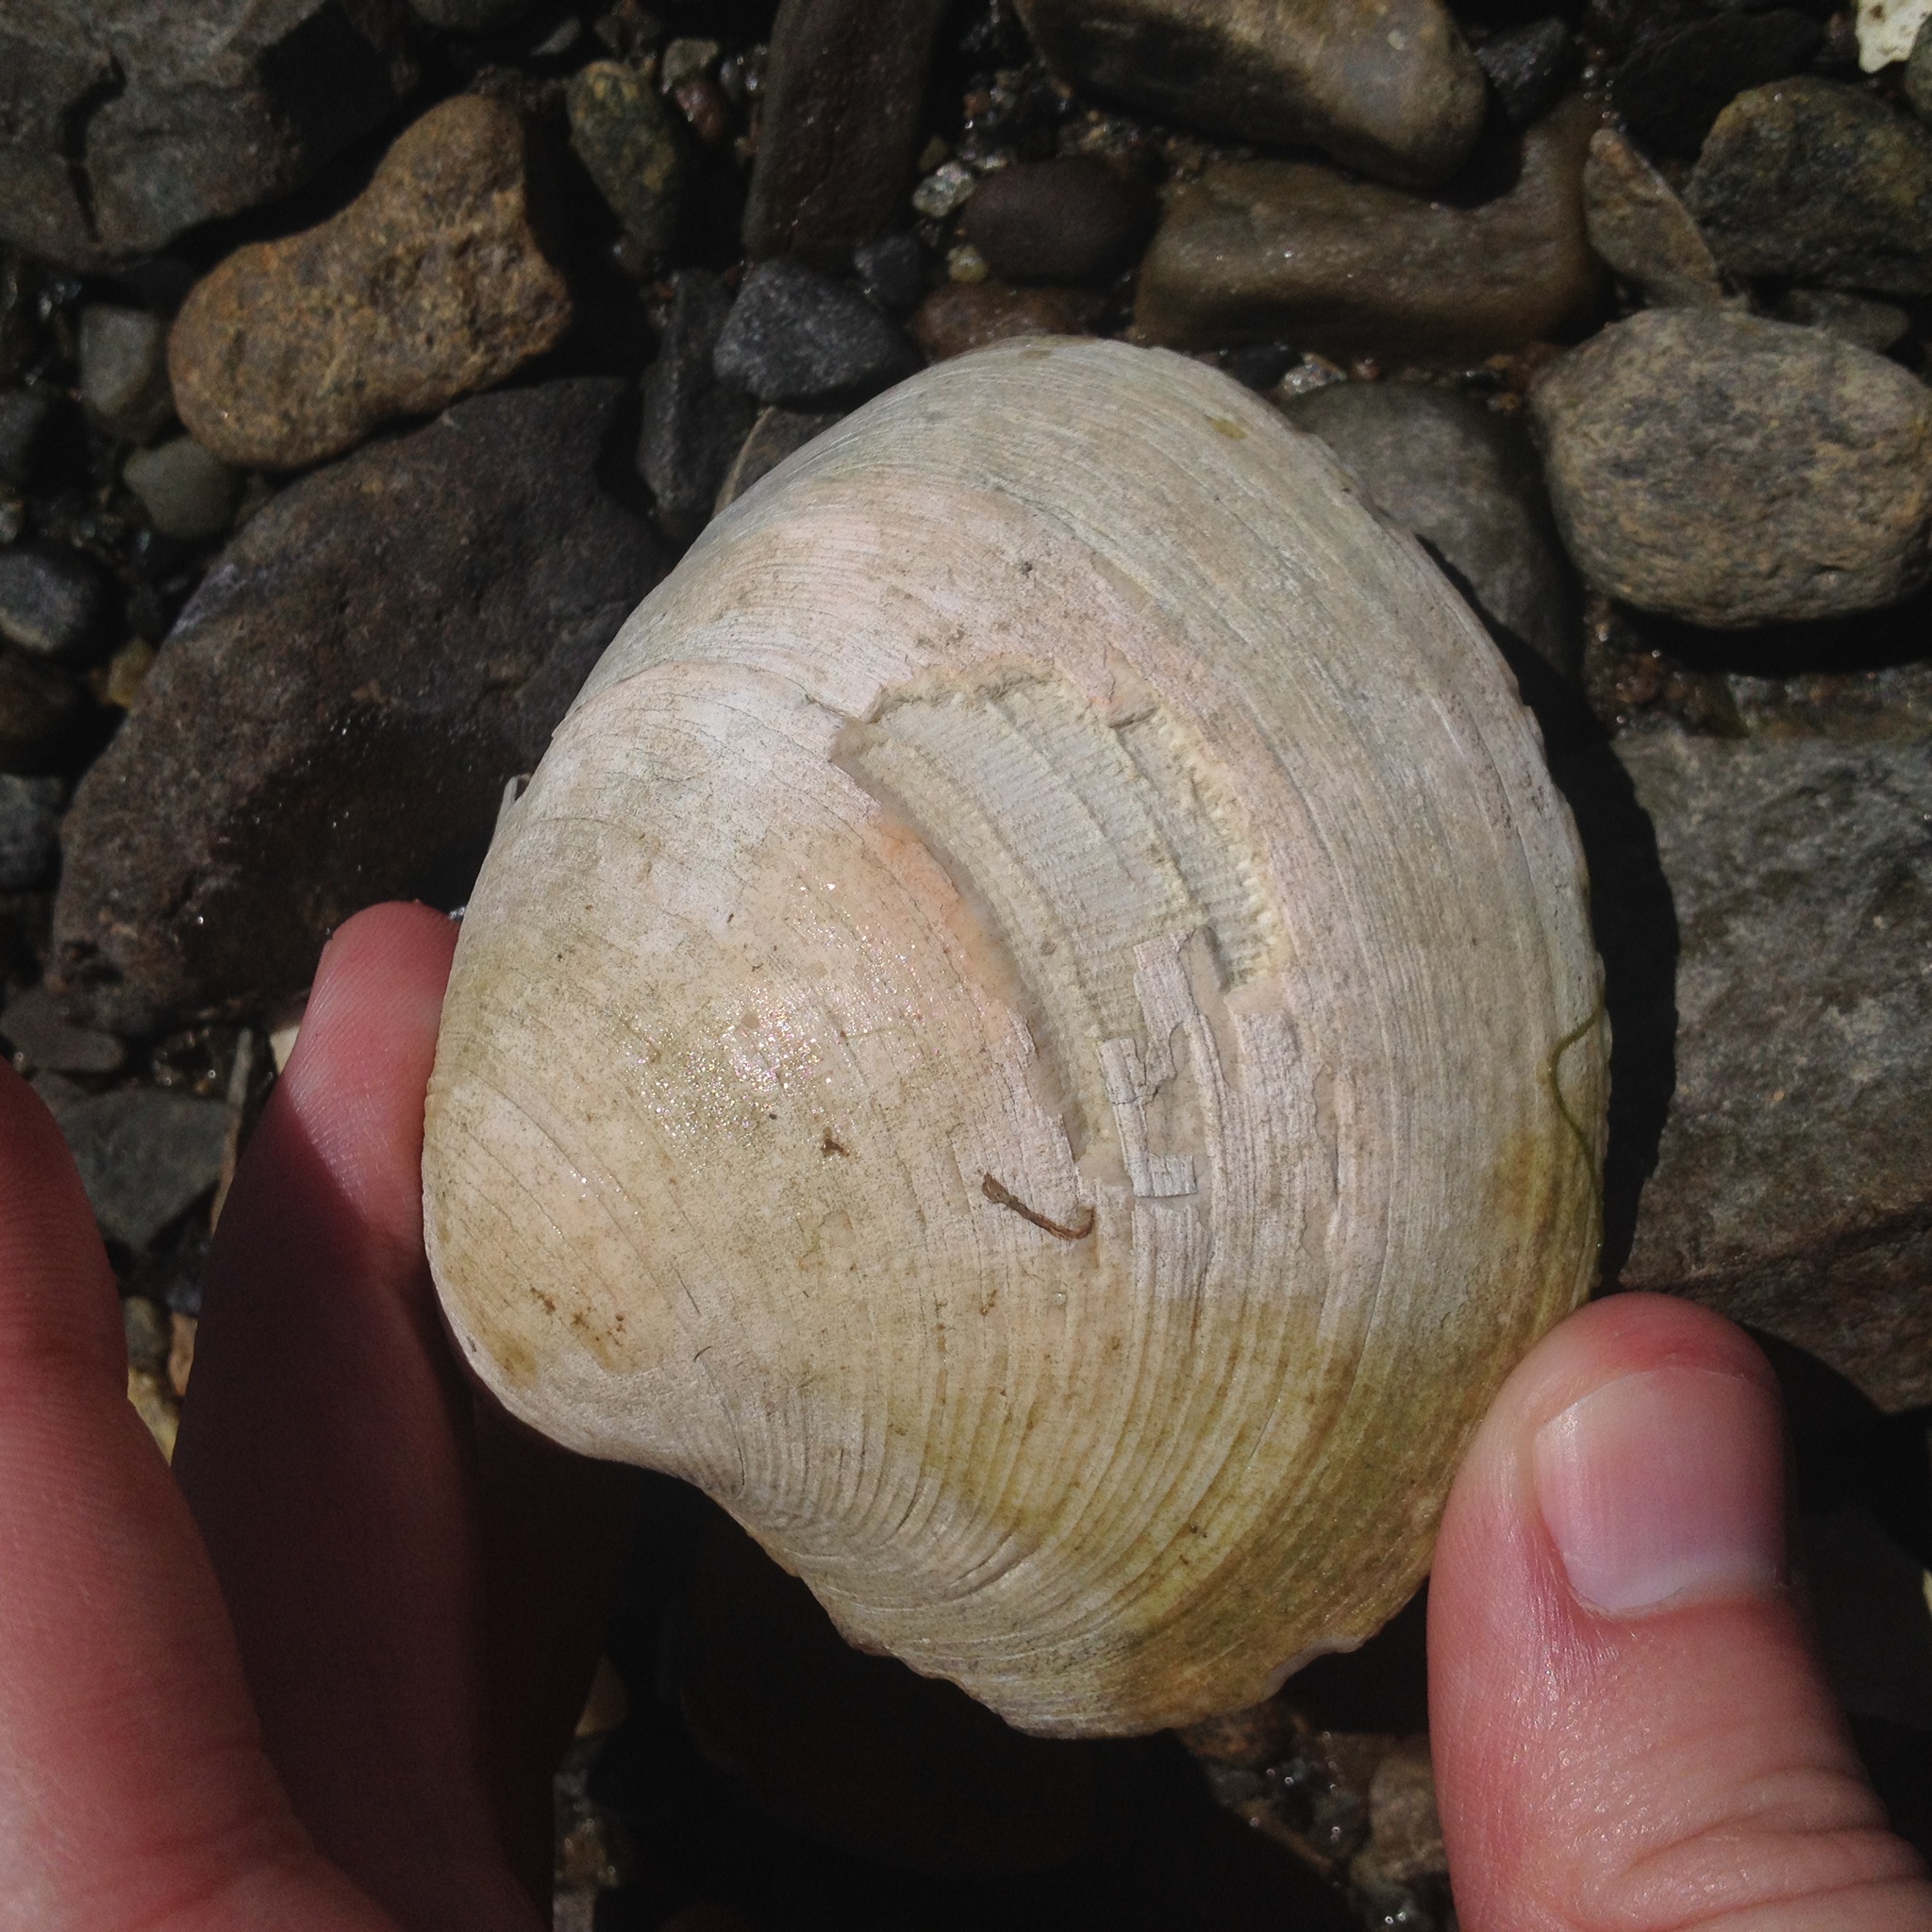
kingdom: Animalia
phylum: Mollusca
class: Bivalvia
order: Venerida
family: Veneridae
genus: Mercenaria
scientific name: Mercenaria mercenaria
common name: American hard-shelled clam
